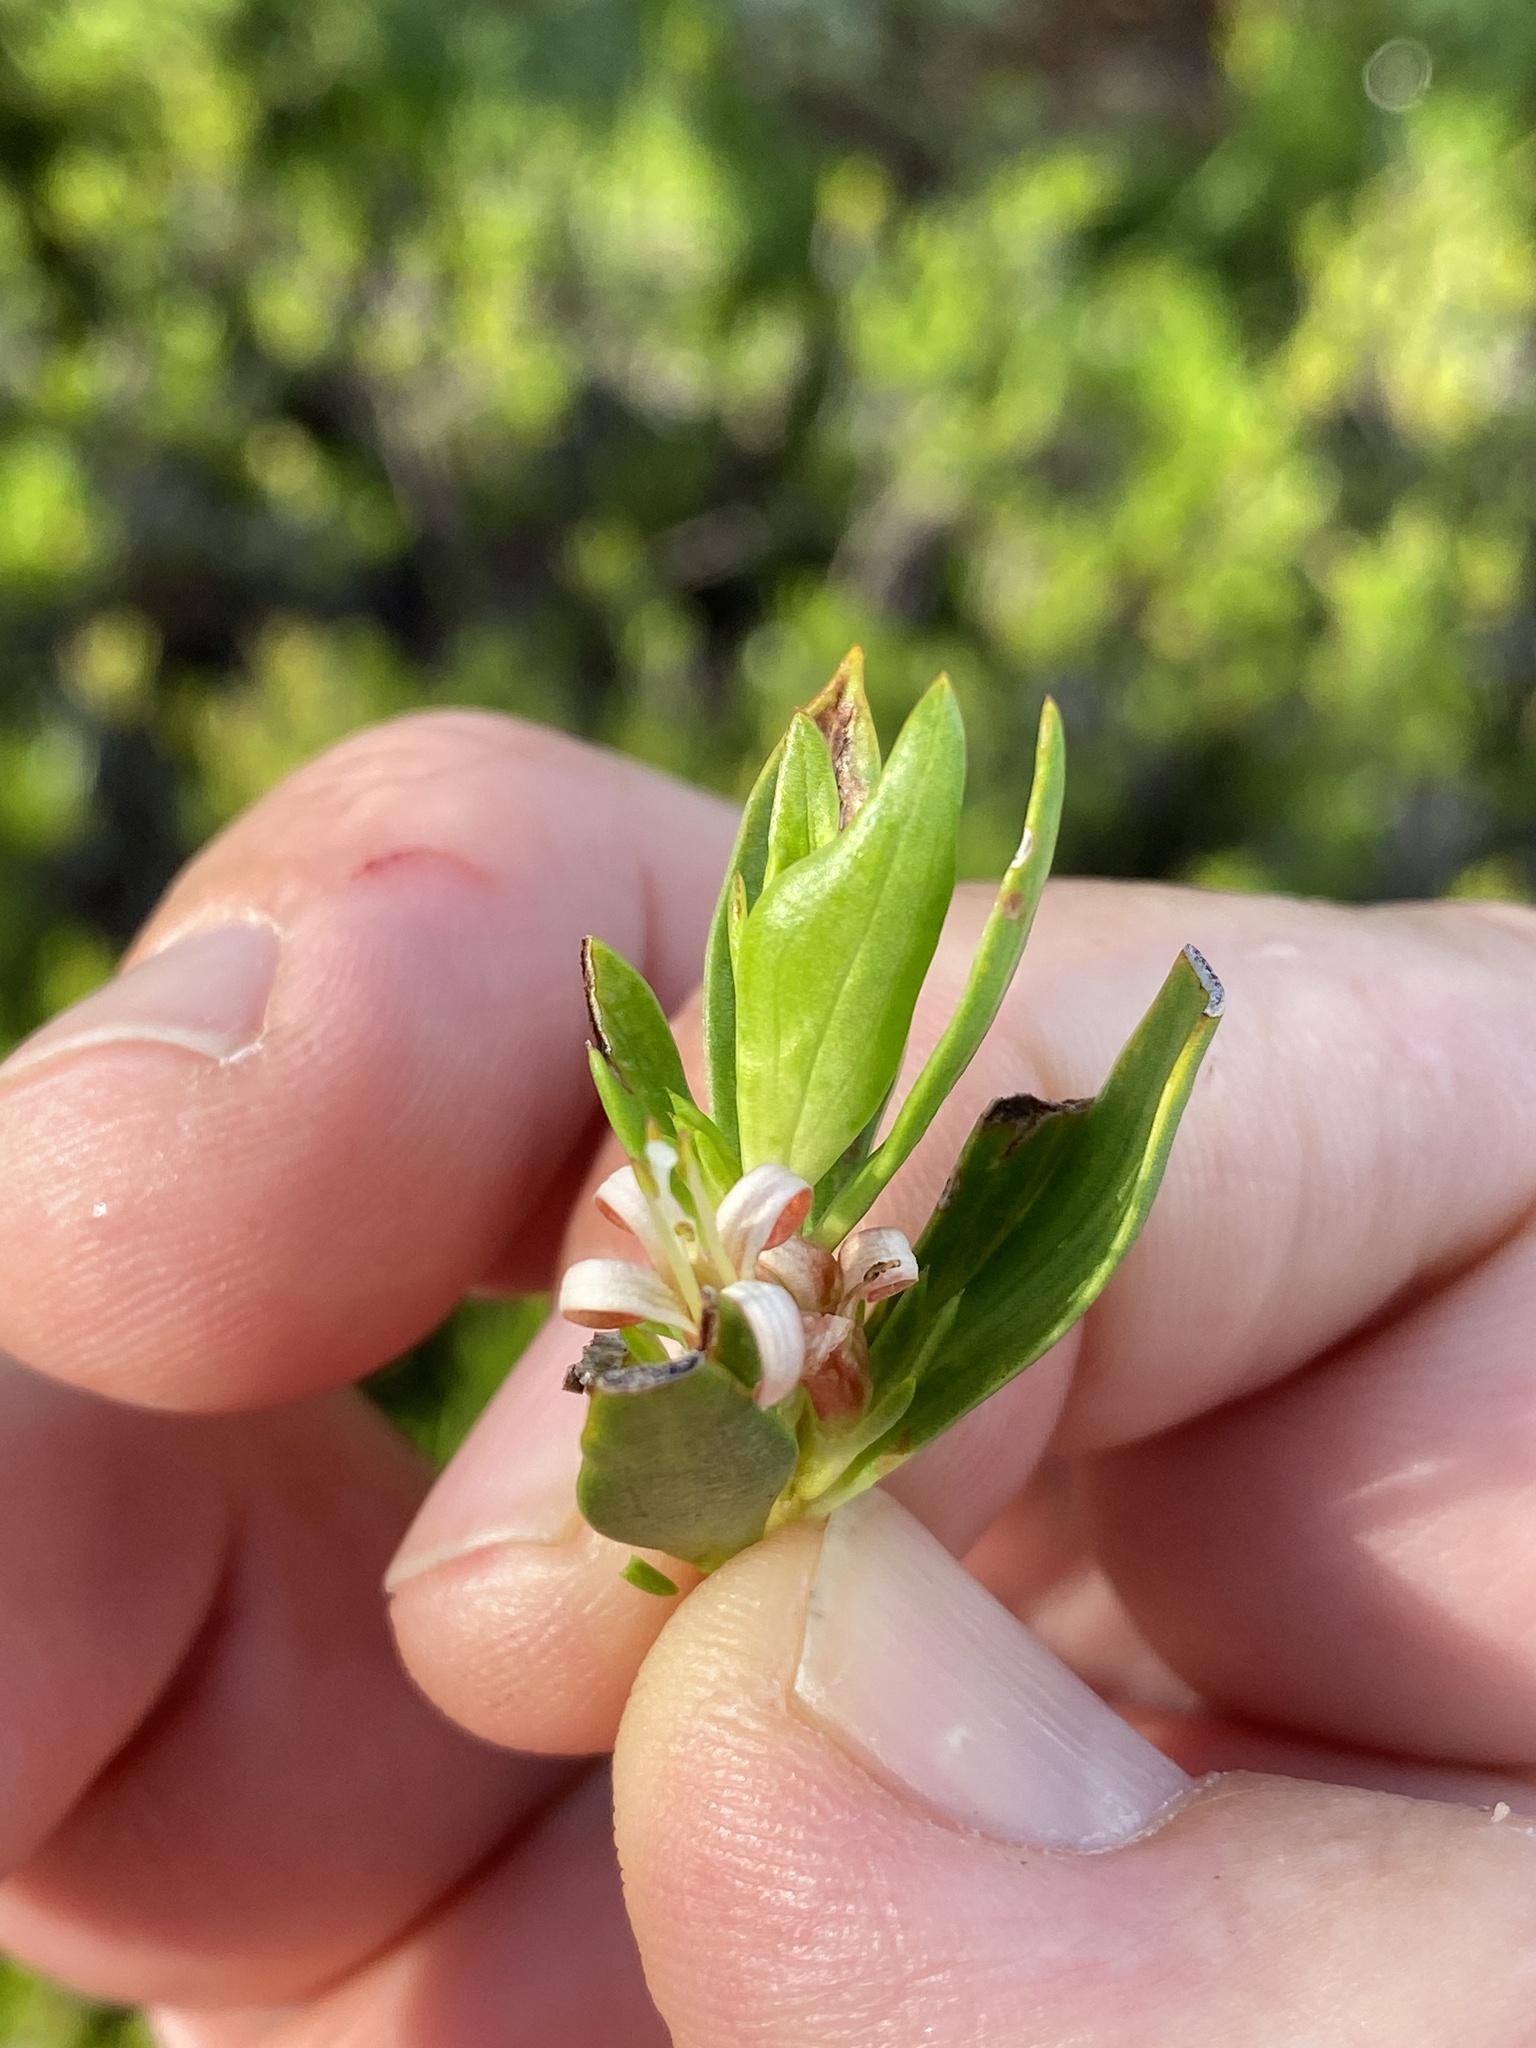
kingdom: Plantae
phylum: Tracheophyta
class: Magnoliopsida
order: Gentianales
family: Rubiaceae
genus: Ernodea
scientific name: Ernodea littoralis
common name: Beach creeper
